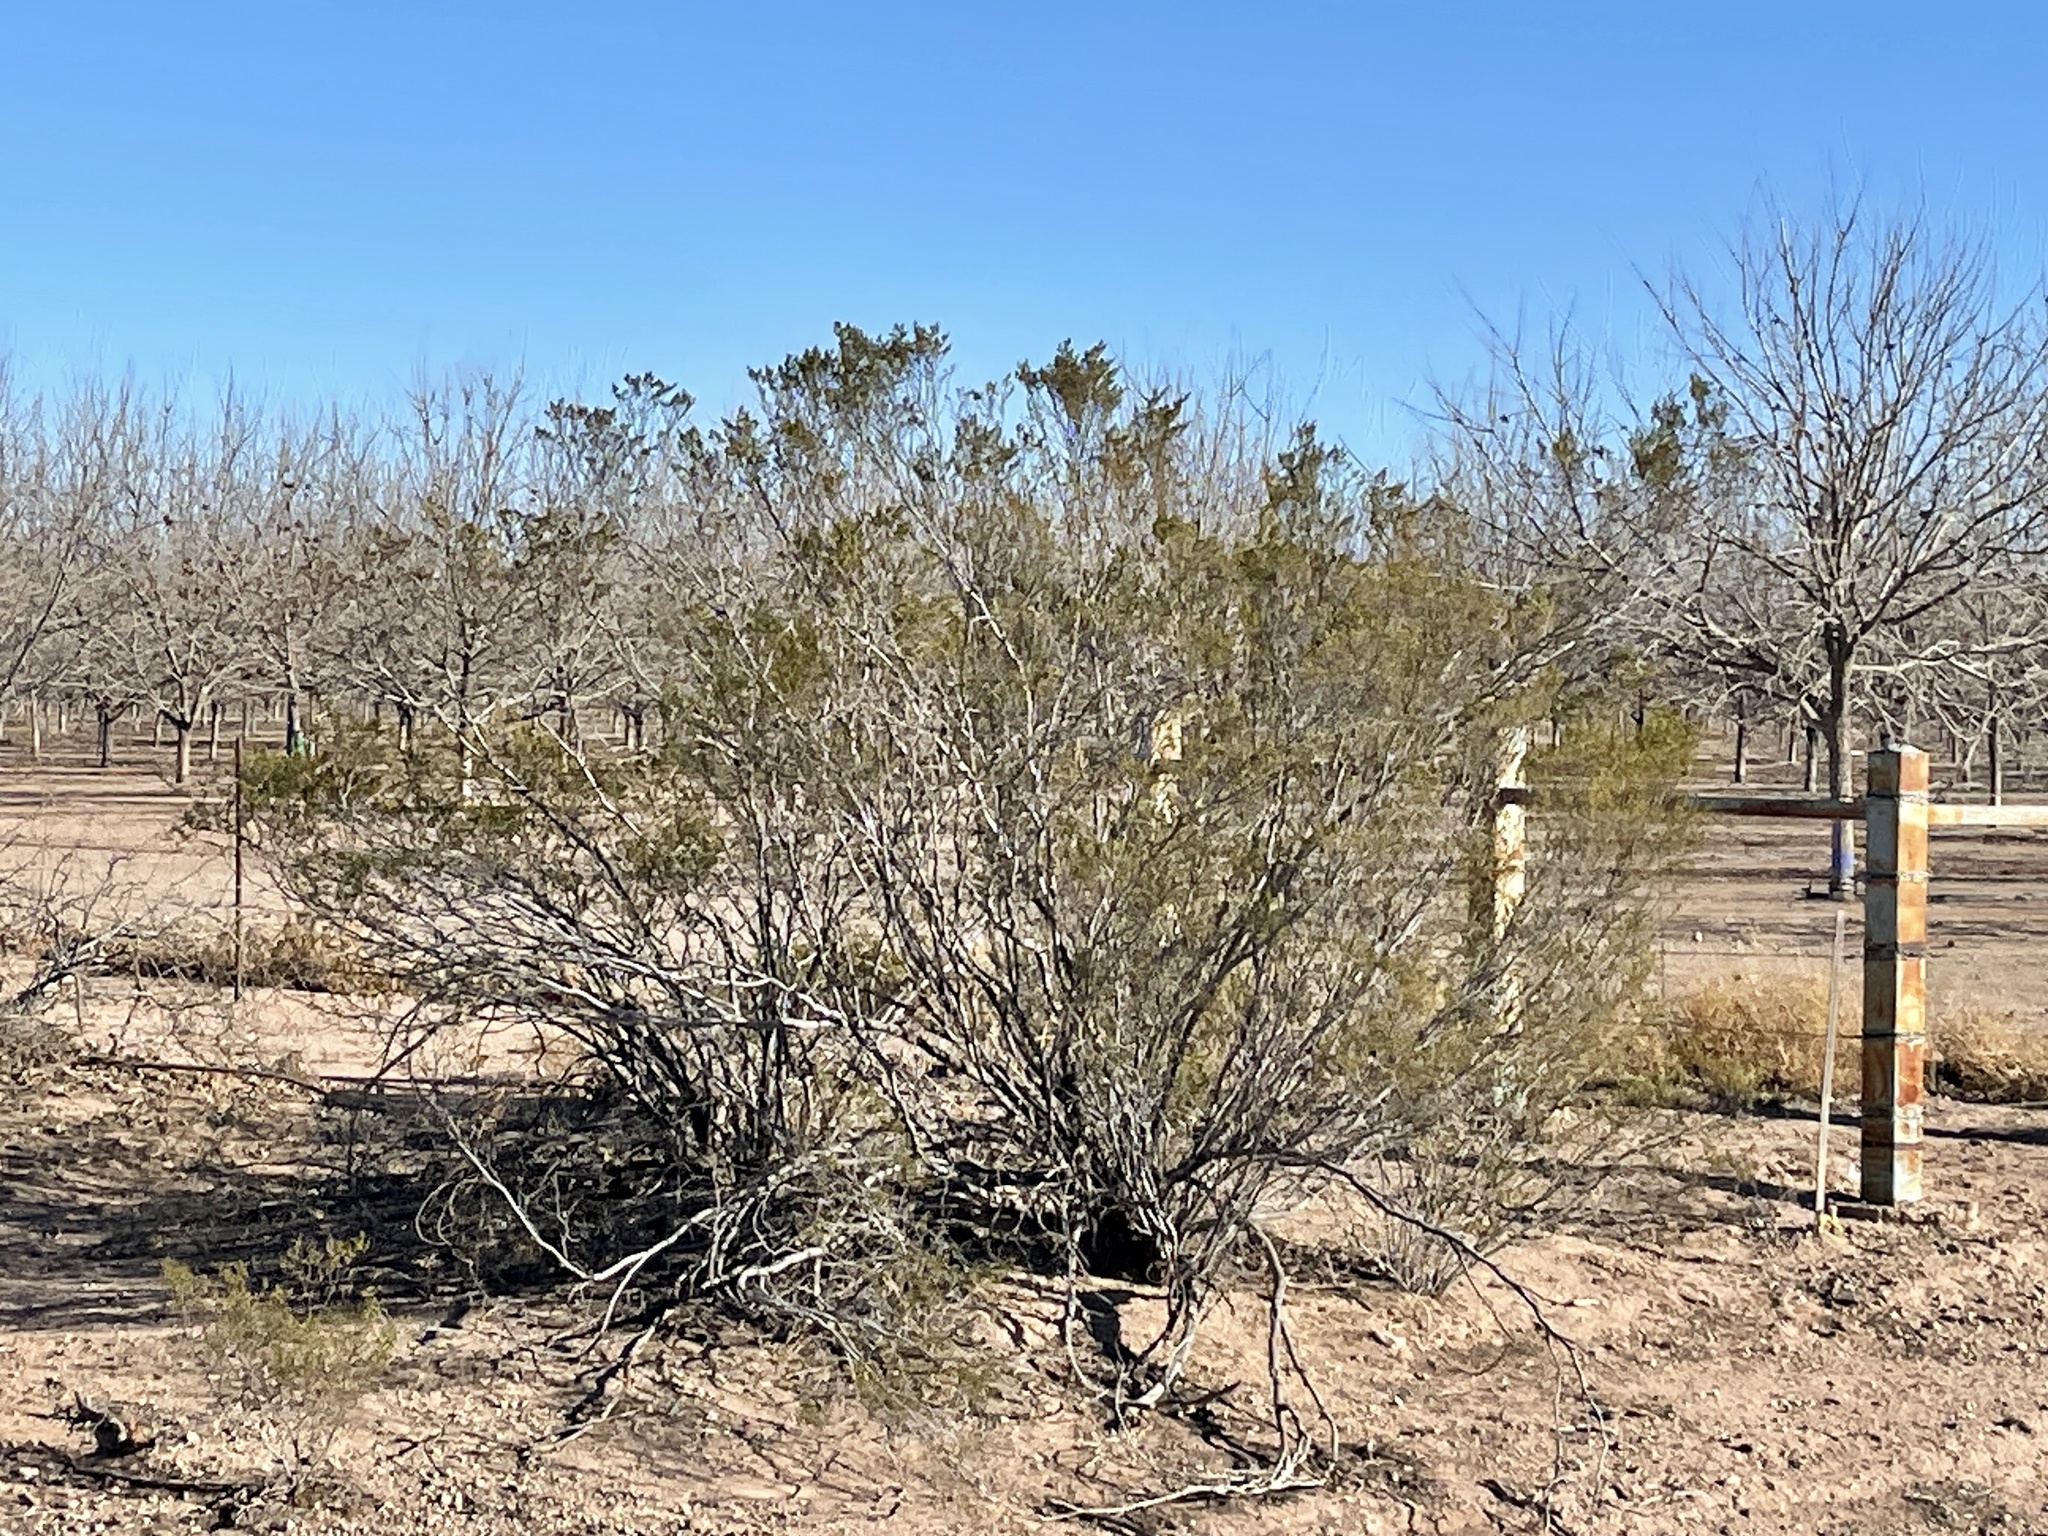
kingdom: Plantae
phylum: Tracheophyta
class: Magnoliopsida
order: Zygophyllales
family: Zygophyllaceae
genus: Larrea
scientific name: Larrea tridentata
